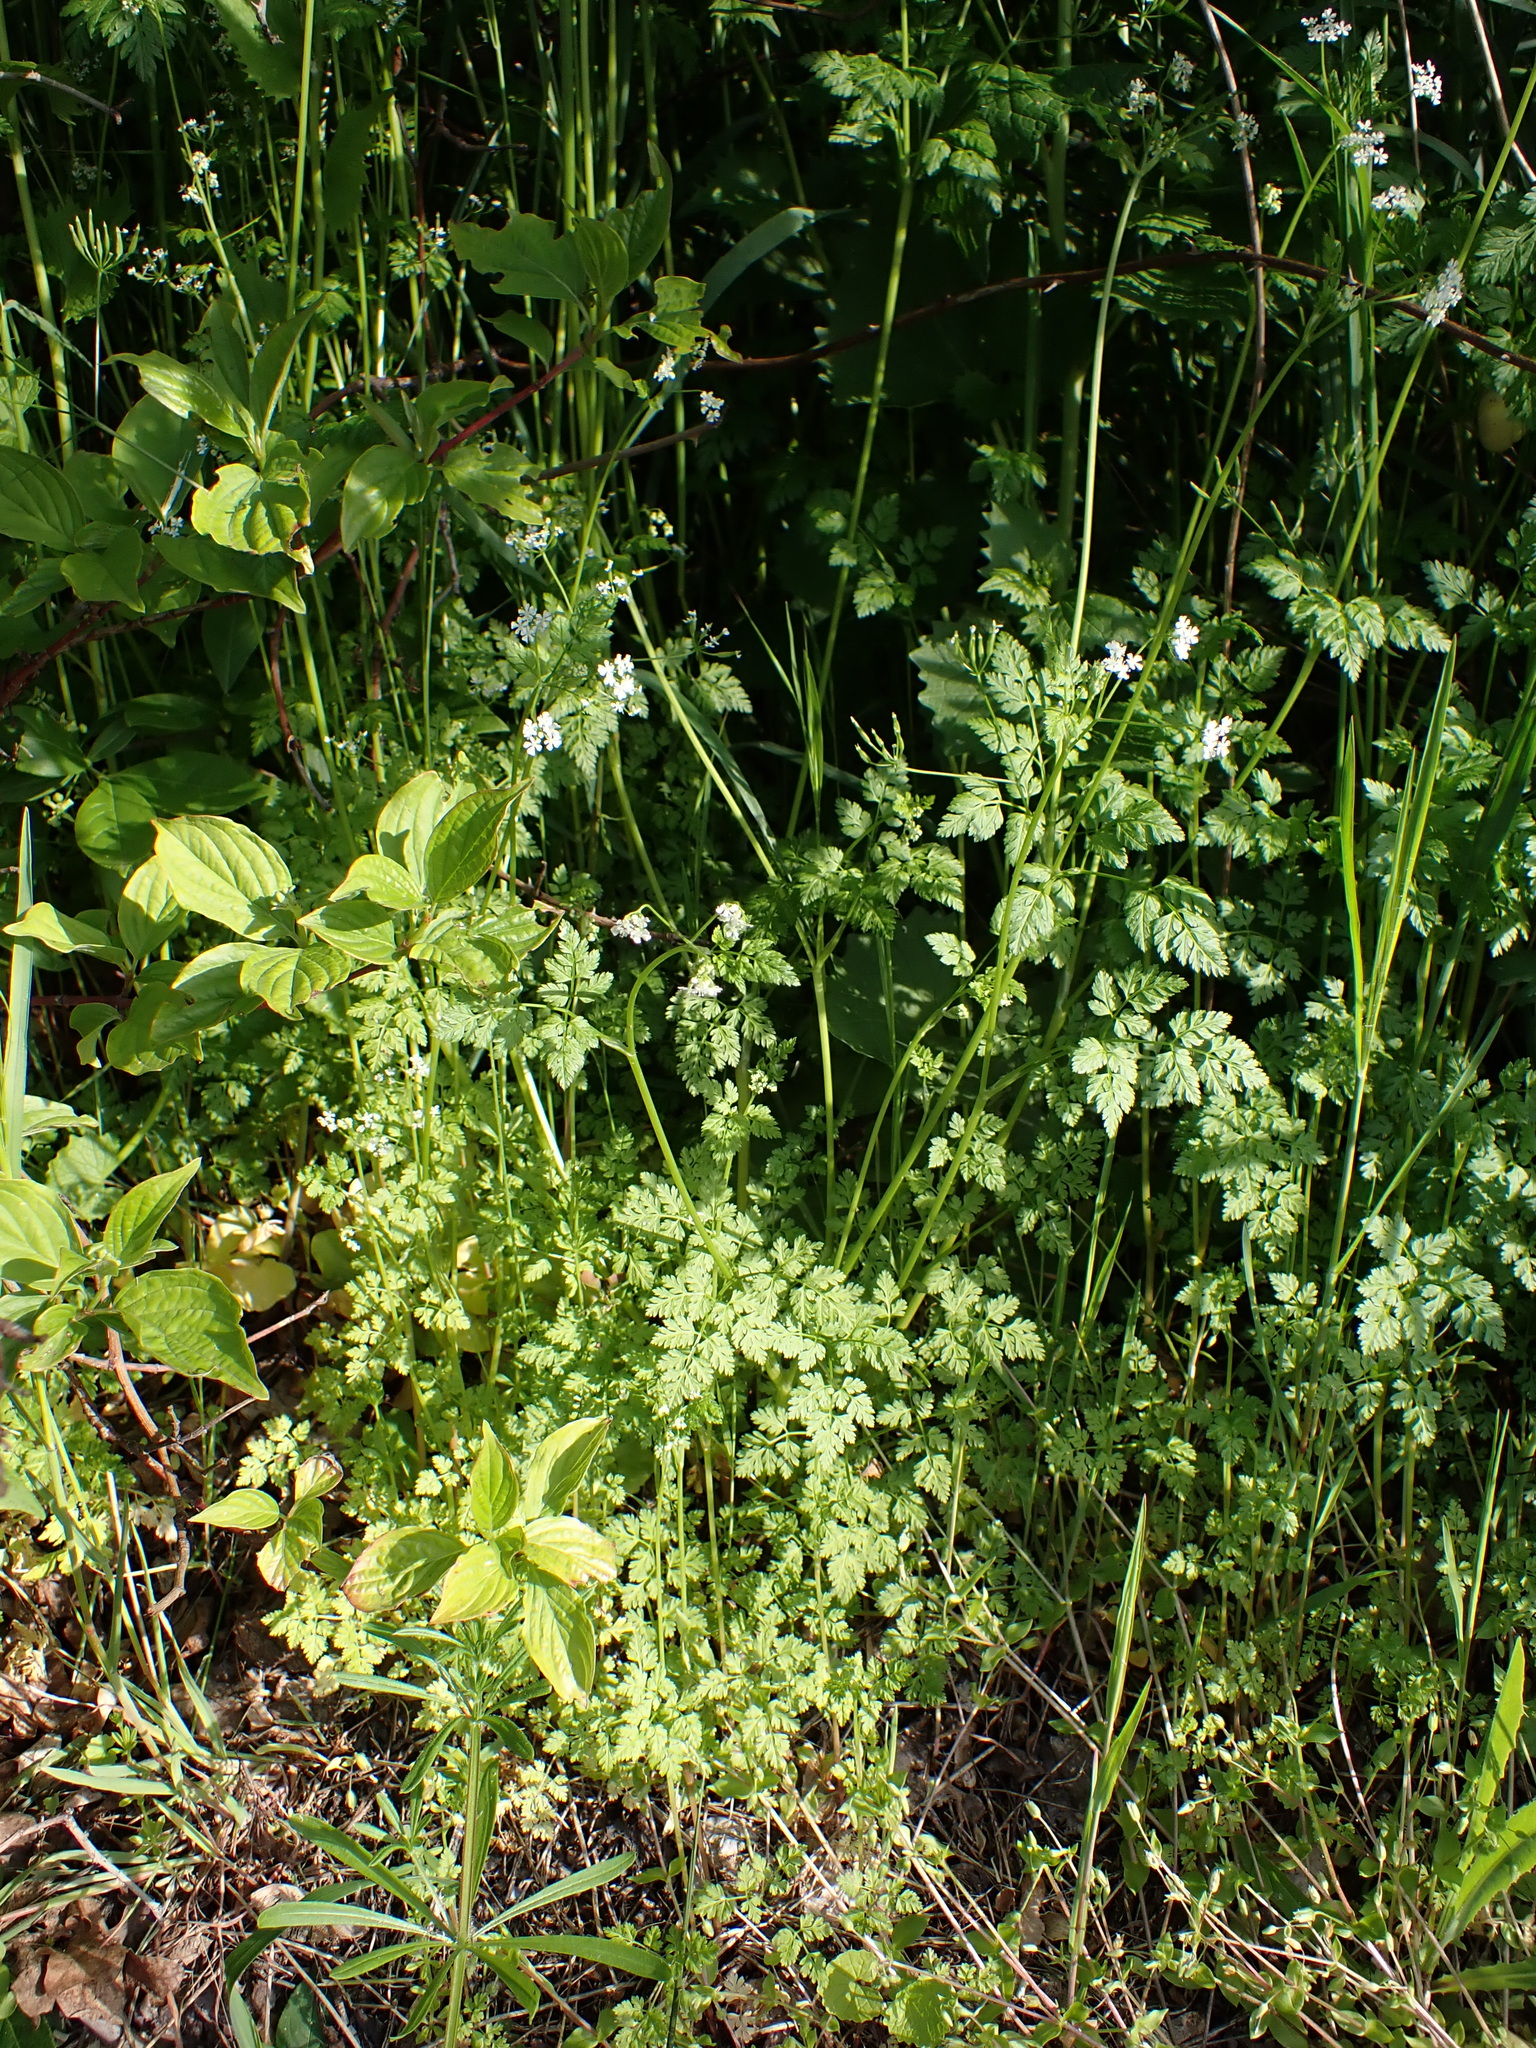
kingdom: Plantae
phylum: Tracheophyta
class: Magnoliopsida
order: Apiales
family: Apiaceae
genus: Anthriscus
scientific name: Anthriscus cerefolium
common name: Garden chervil
